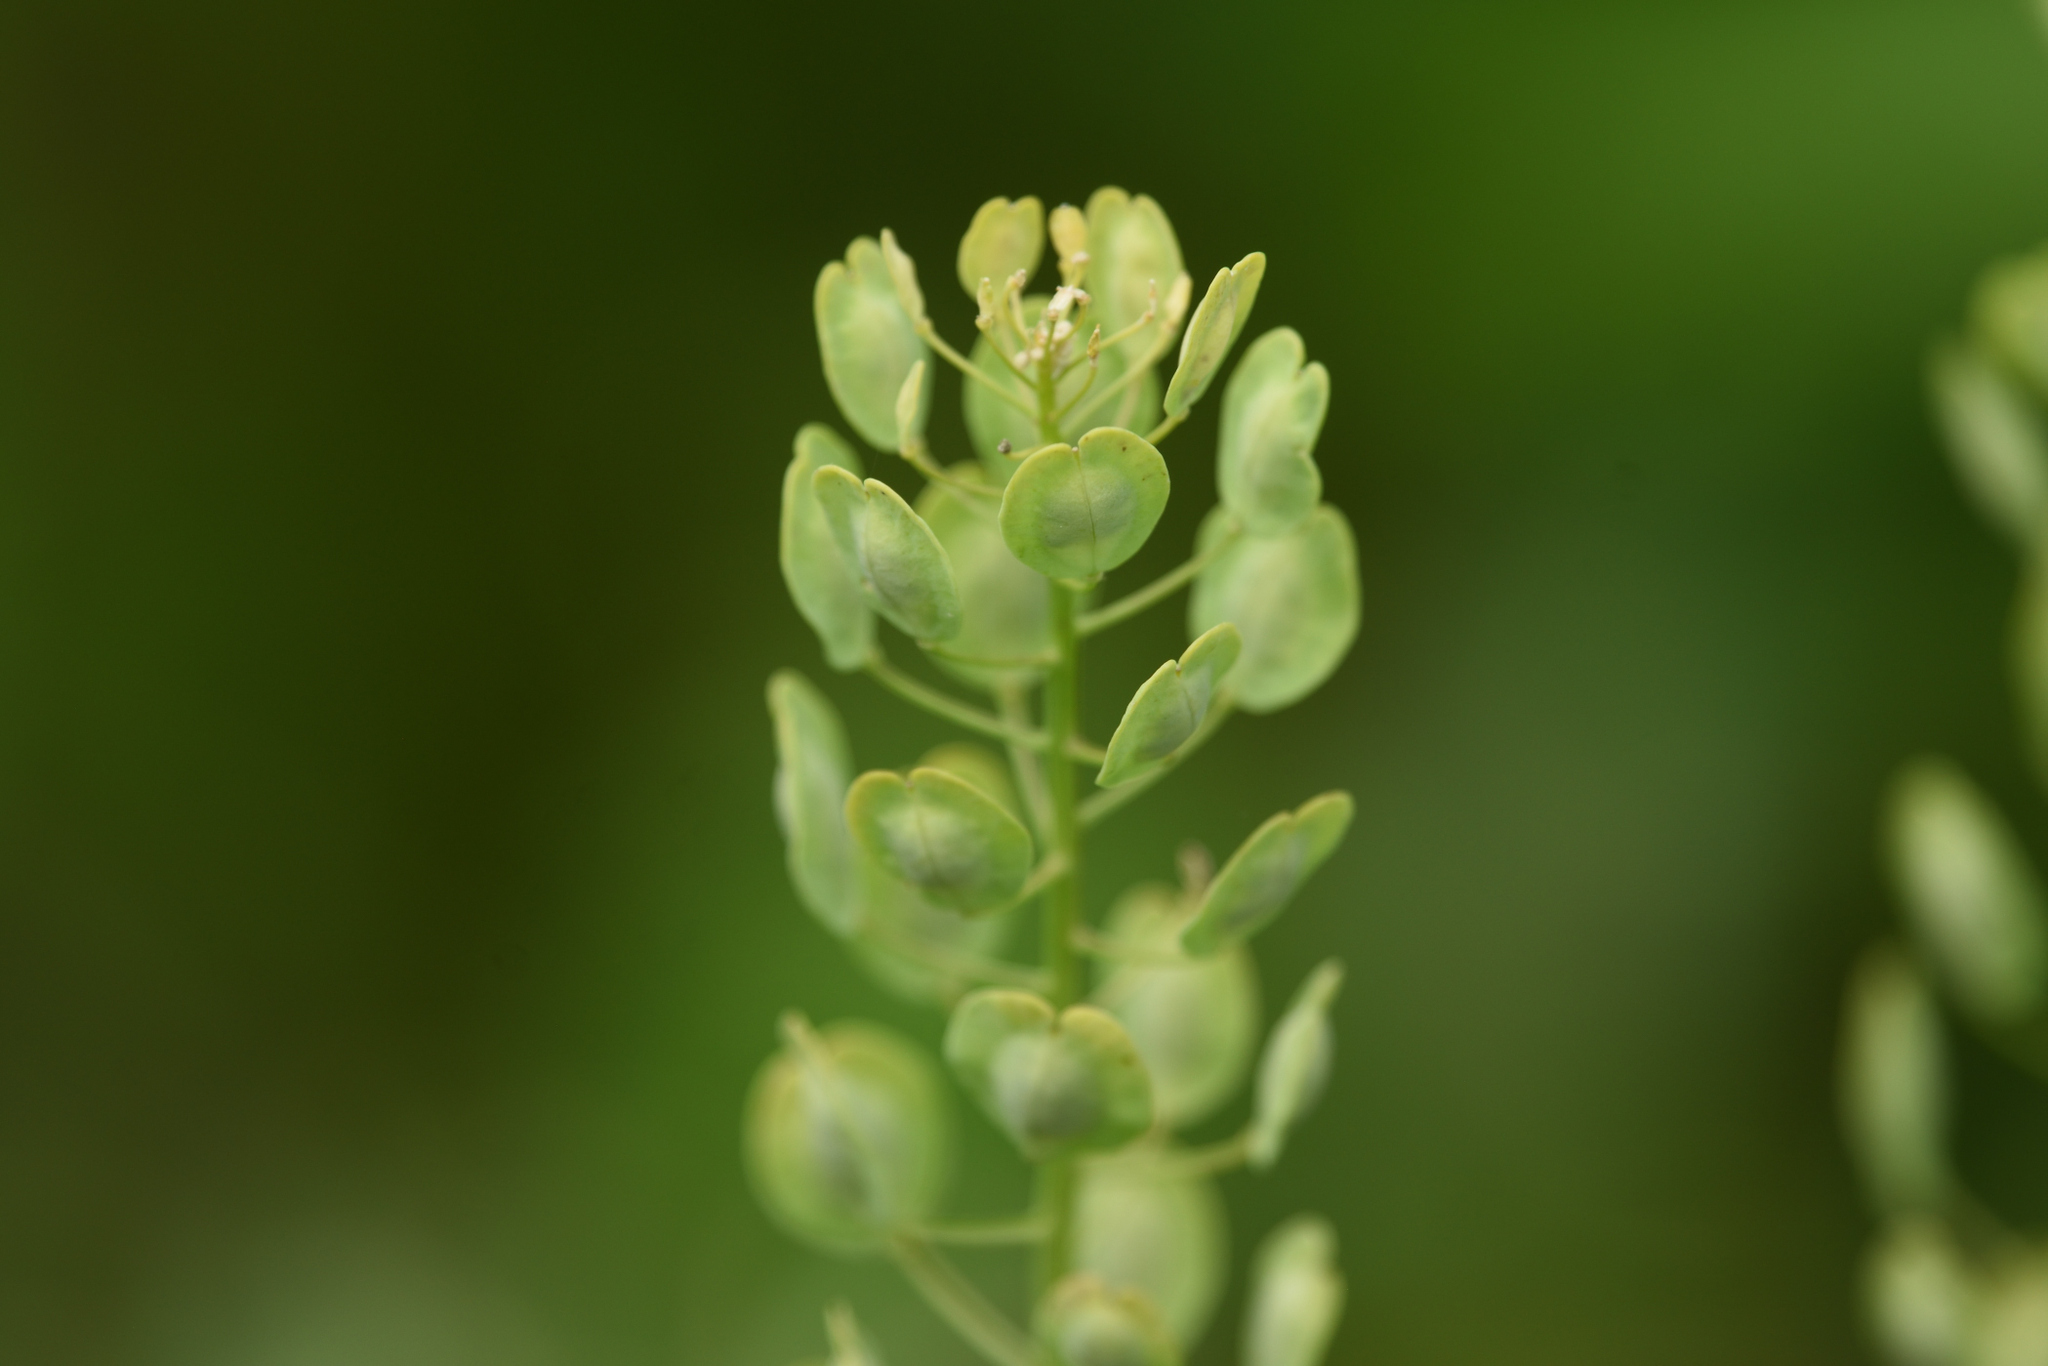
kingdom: Plantae
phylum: Tracheophyta
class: Magnoliopsida
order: Brassicales
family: Brassicaceae
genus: Thlaspi
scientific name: Thlaspi arvense
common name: Field pennycress
